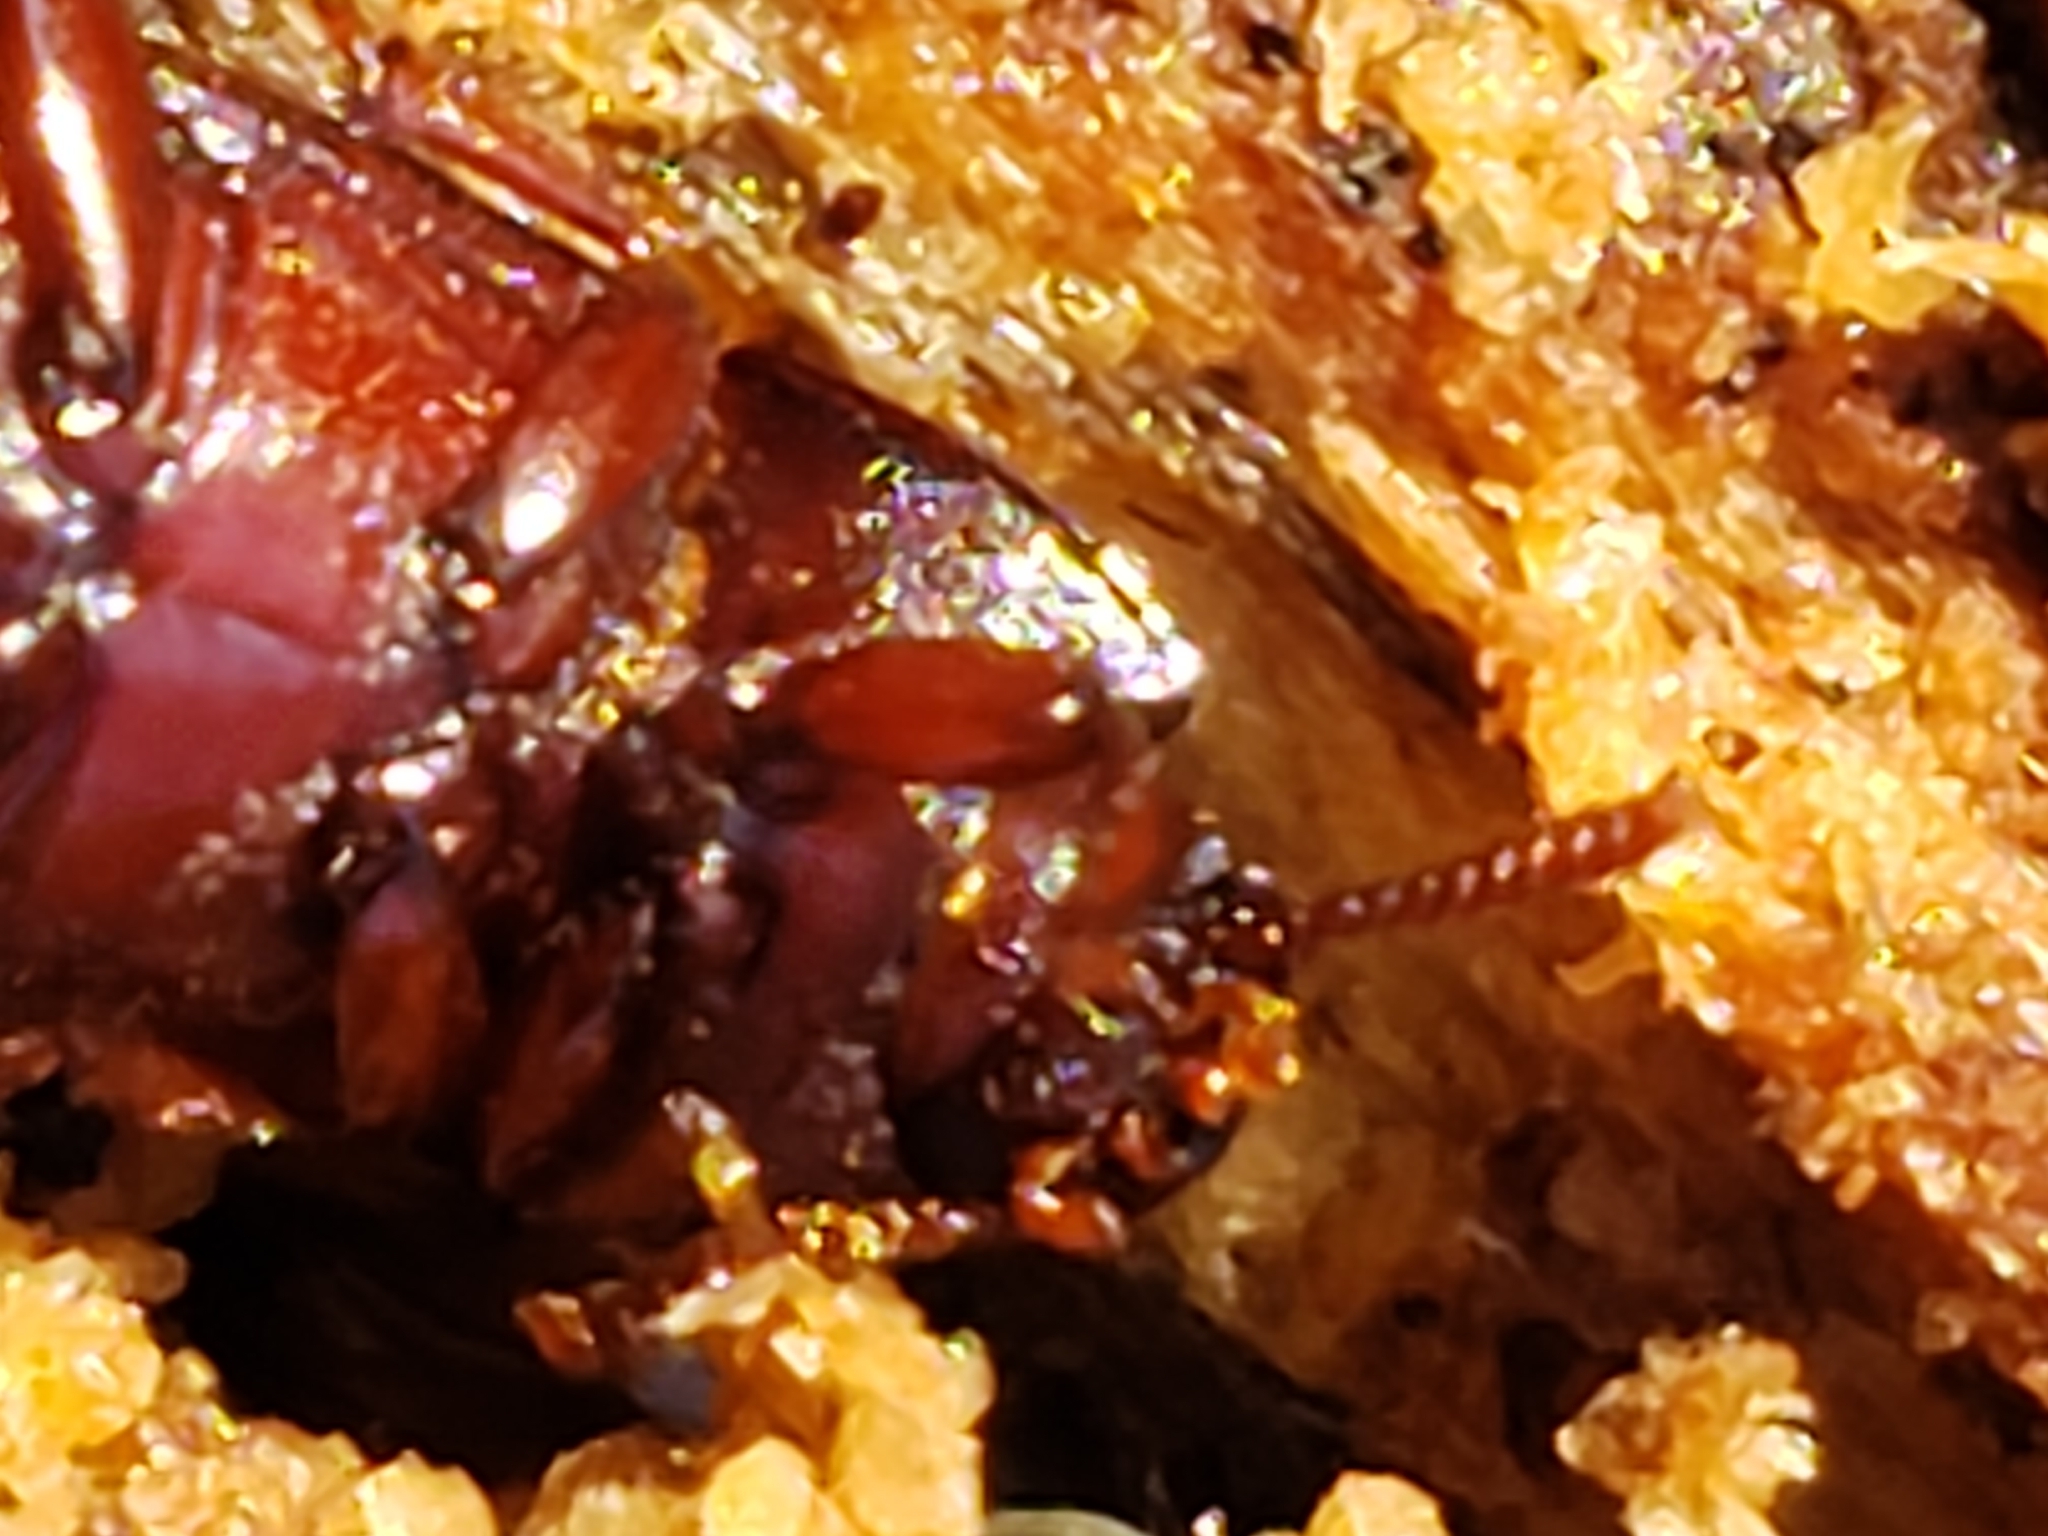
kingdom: Animalia
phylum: Arthropoda
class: Insecta
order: Coleoptera
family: Tenebrionidae
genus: Uloma
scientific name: Uloma imberbis
